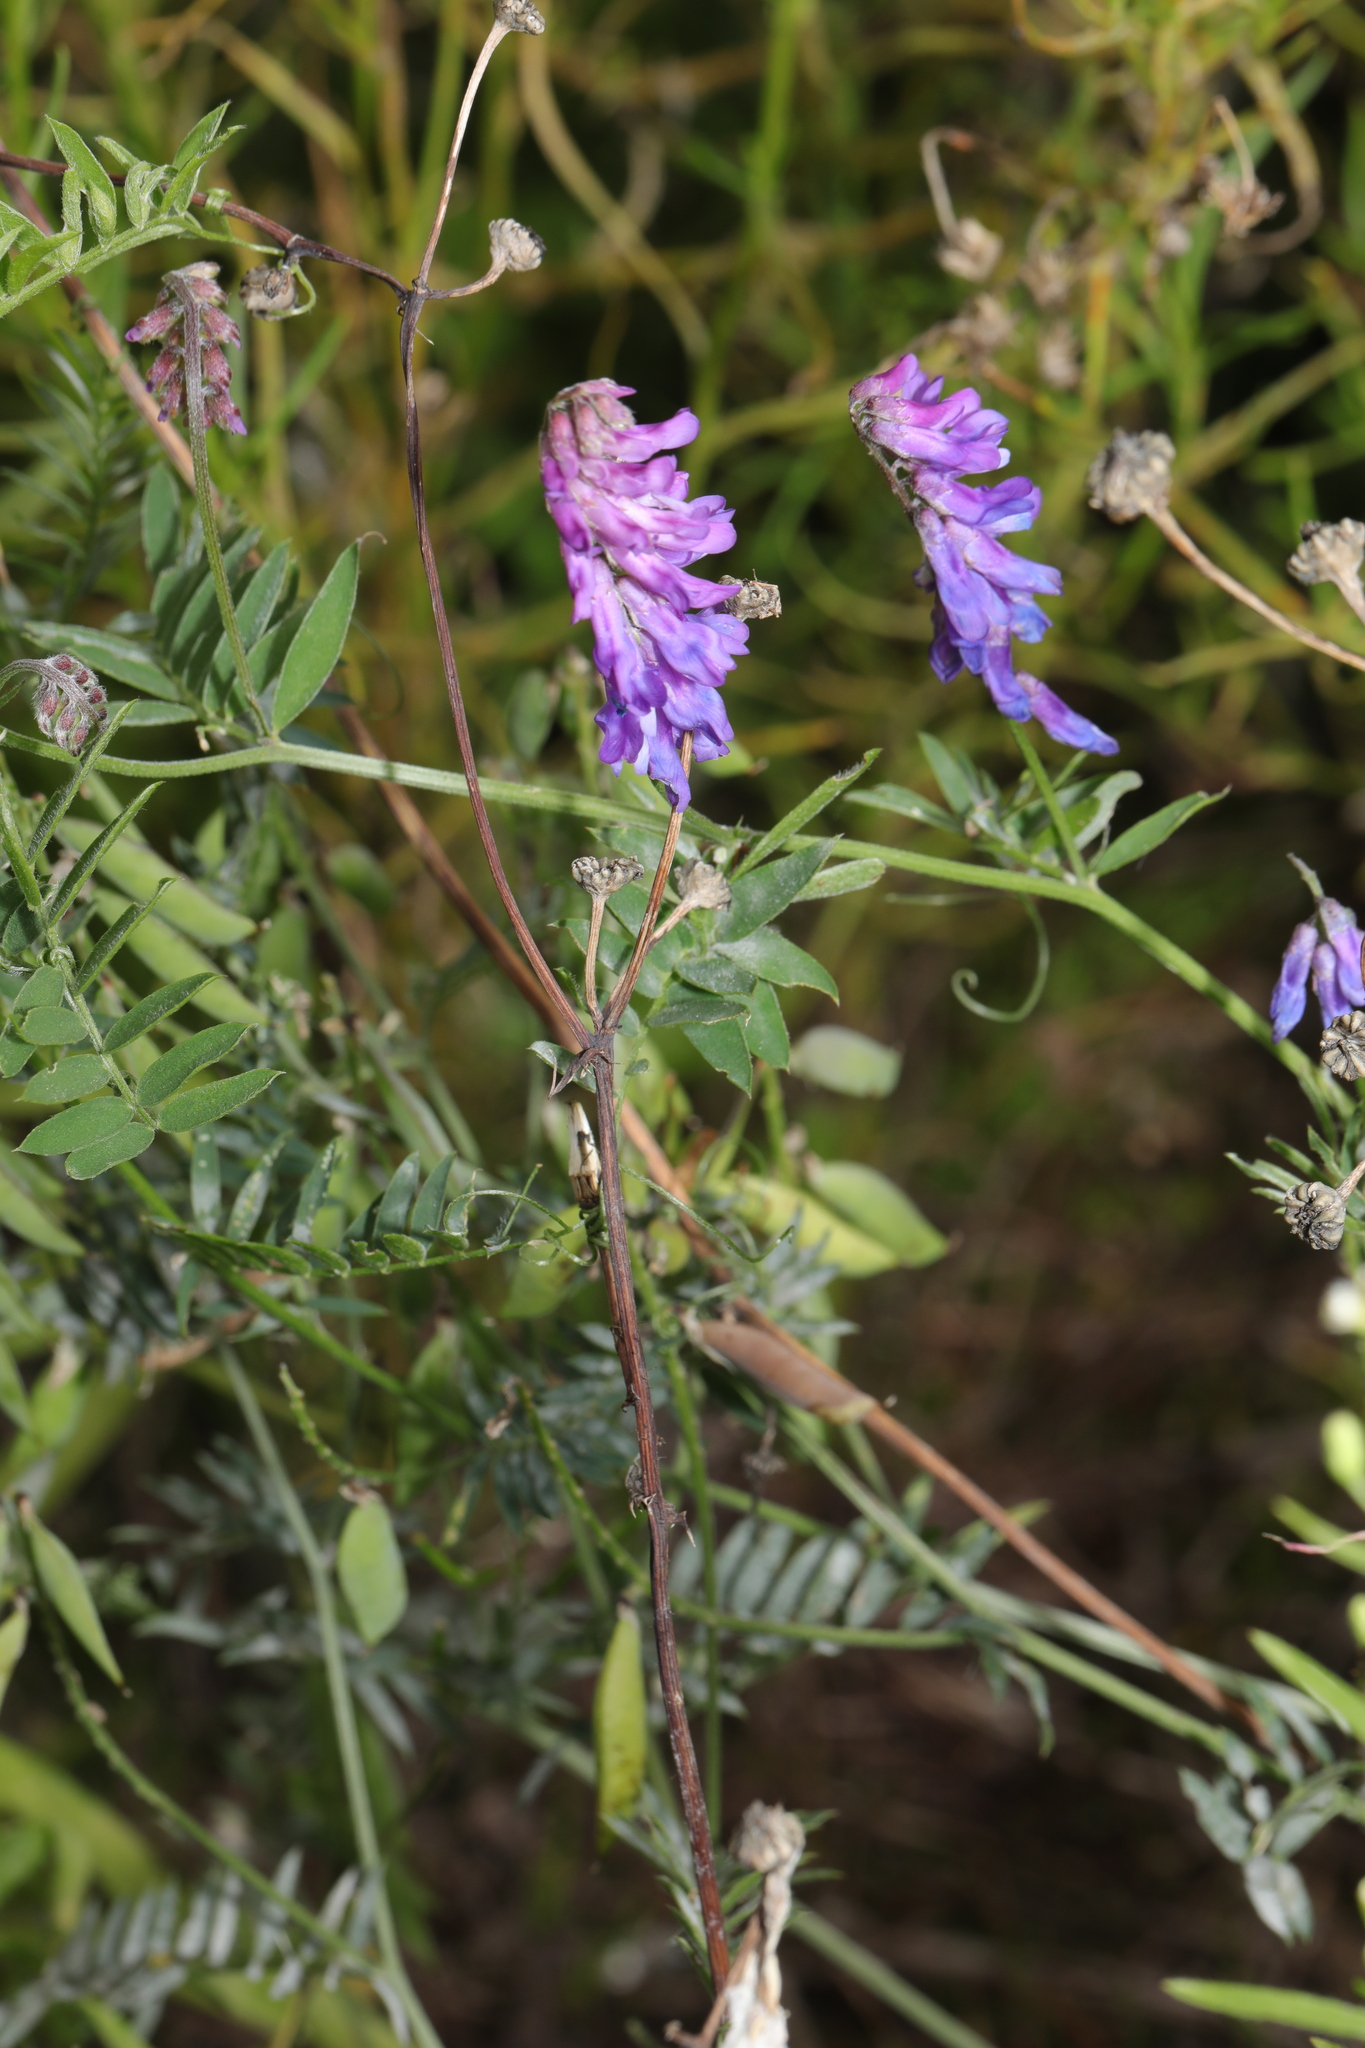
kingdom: Plantae
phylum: Tracheophyta
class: Magnoliopsida
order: Fabales
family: Fabaceae
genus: Vicia
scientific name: Vicia cracca
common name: Bird vetch
